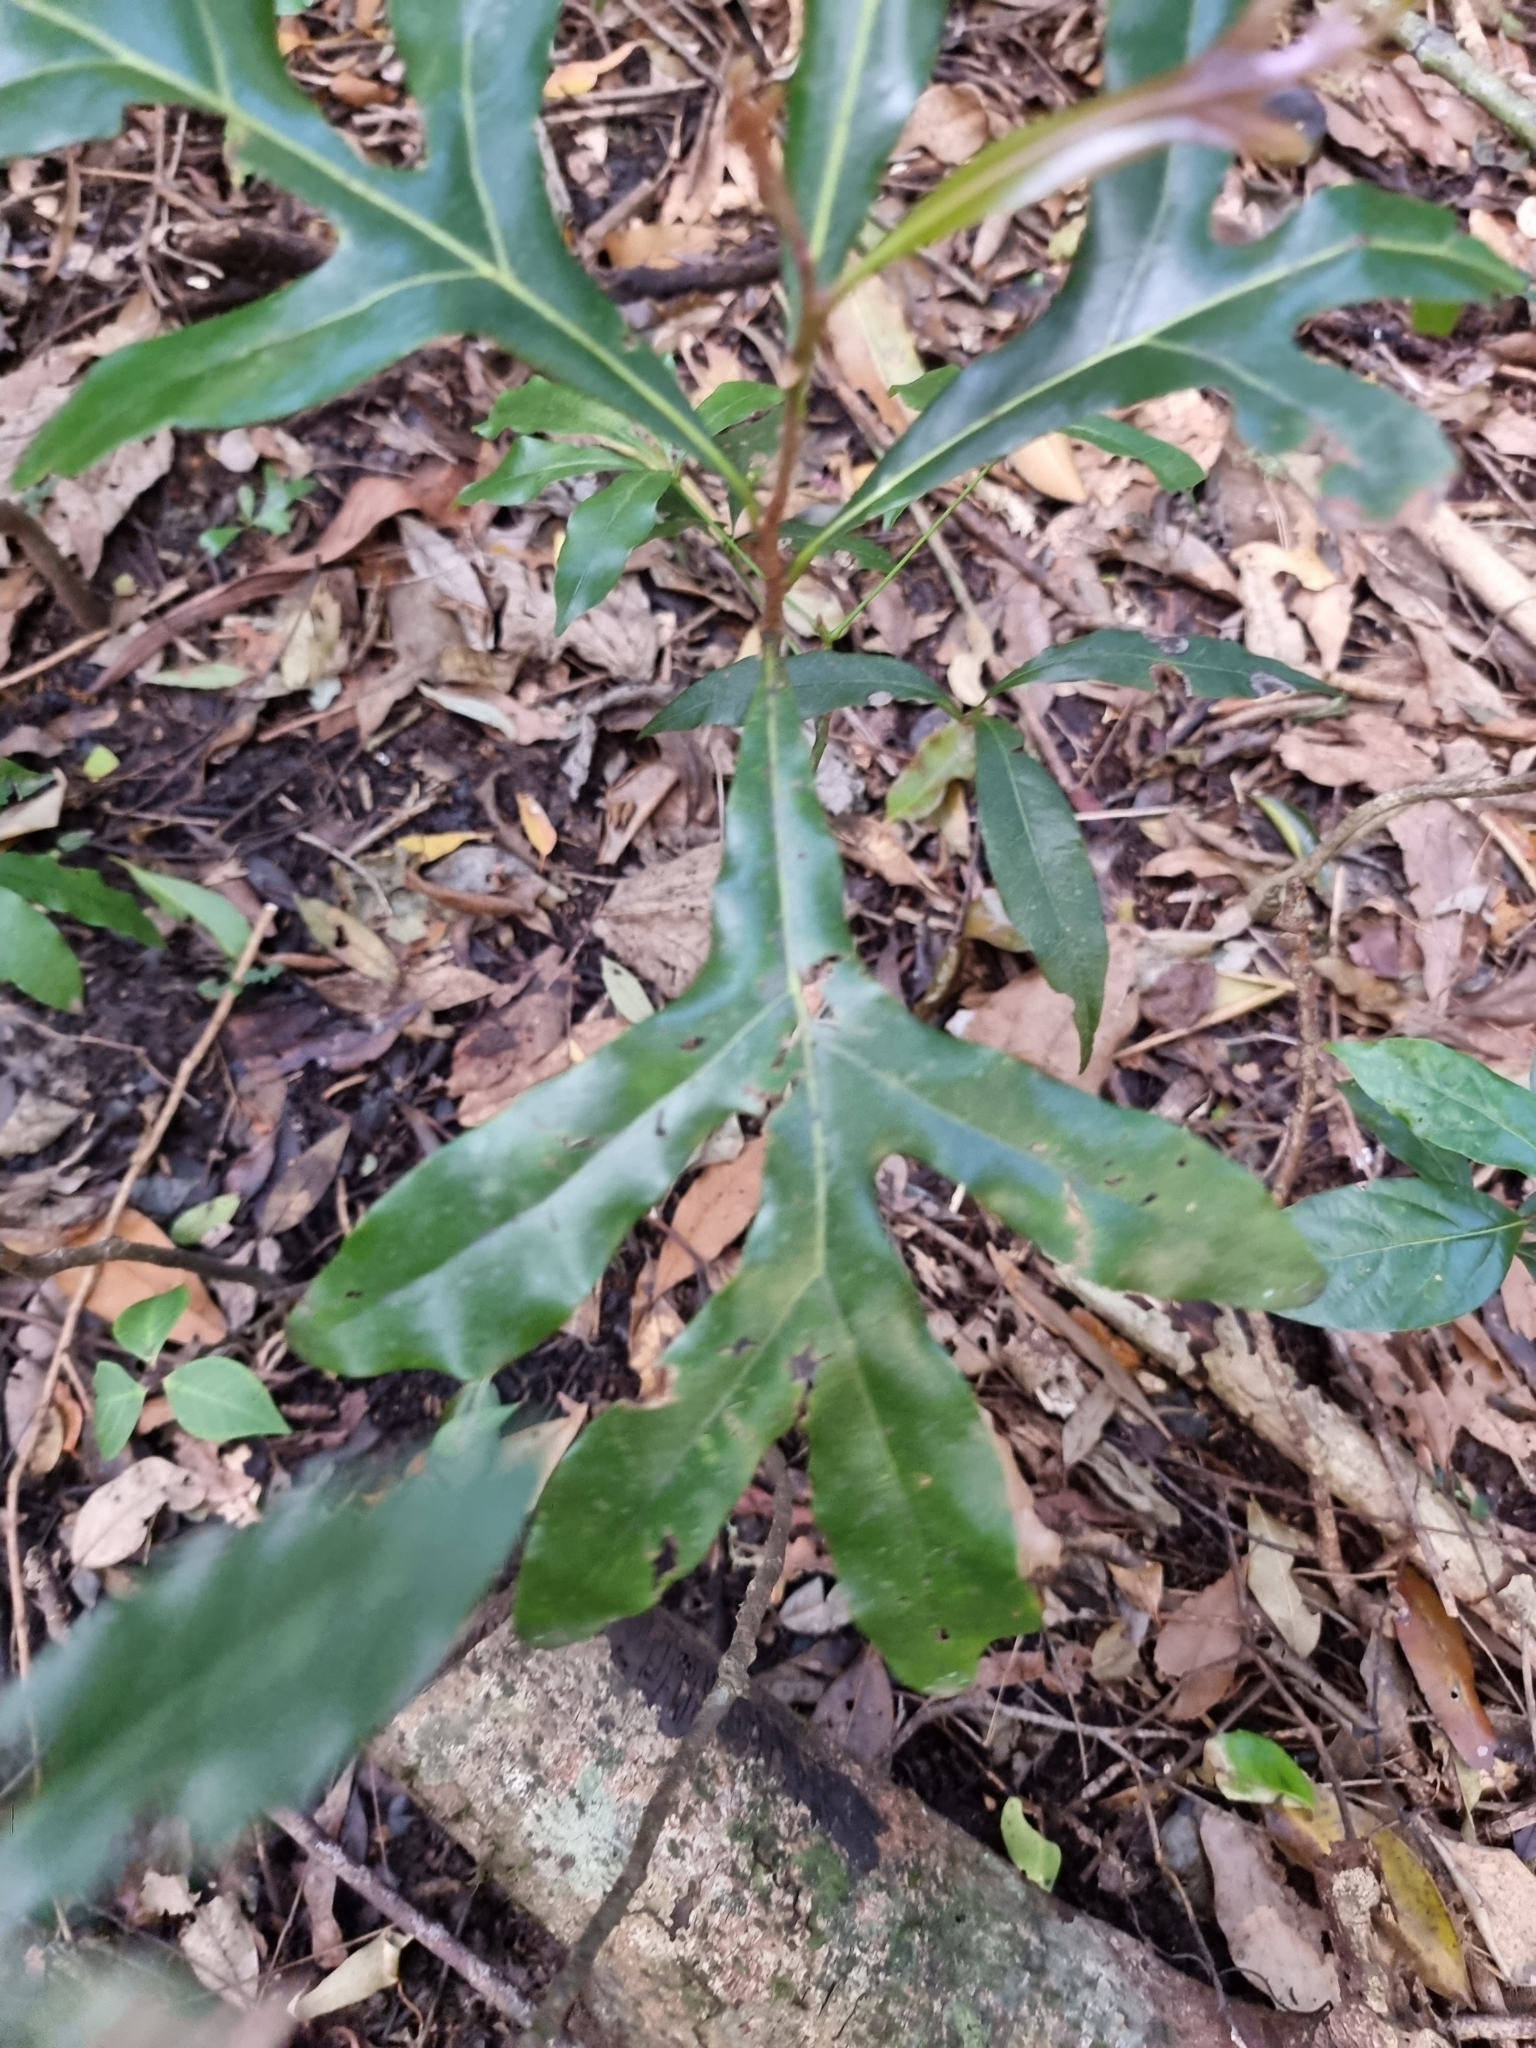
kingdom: Plantae
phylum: Tracheophyta
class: Magnoliopsida
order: Proteales
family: Proteaceae
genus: Stenocarpus
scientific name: Stenocarpus sinuatus
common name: Queensland fire-wheel-tree
